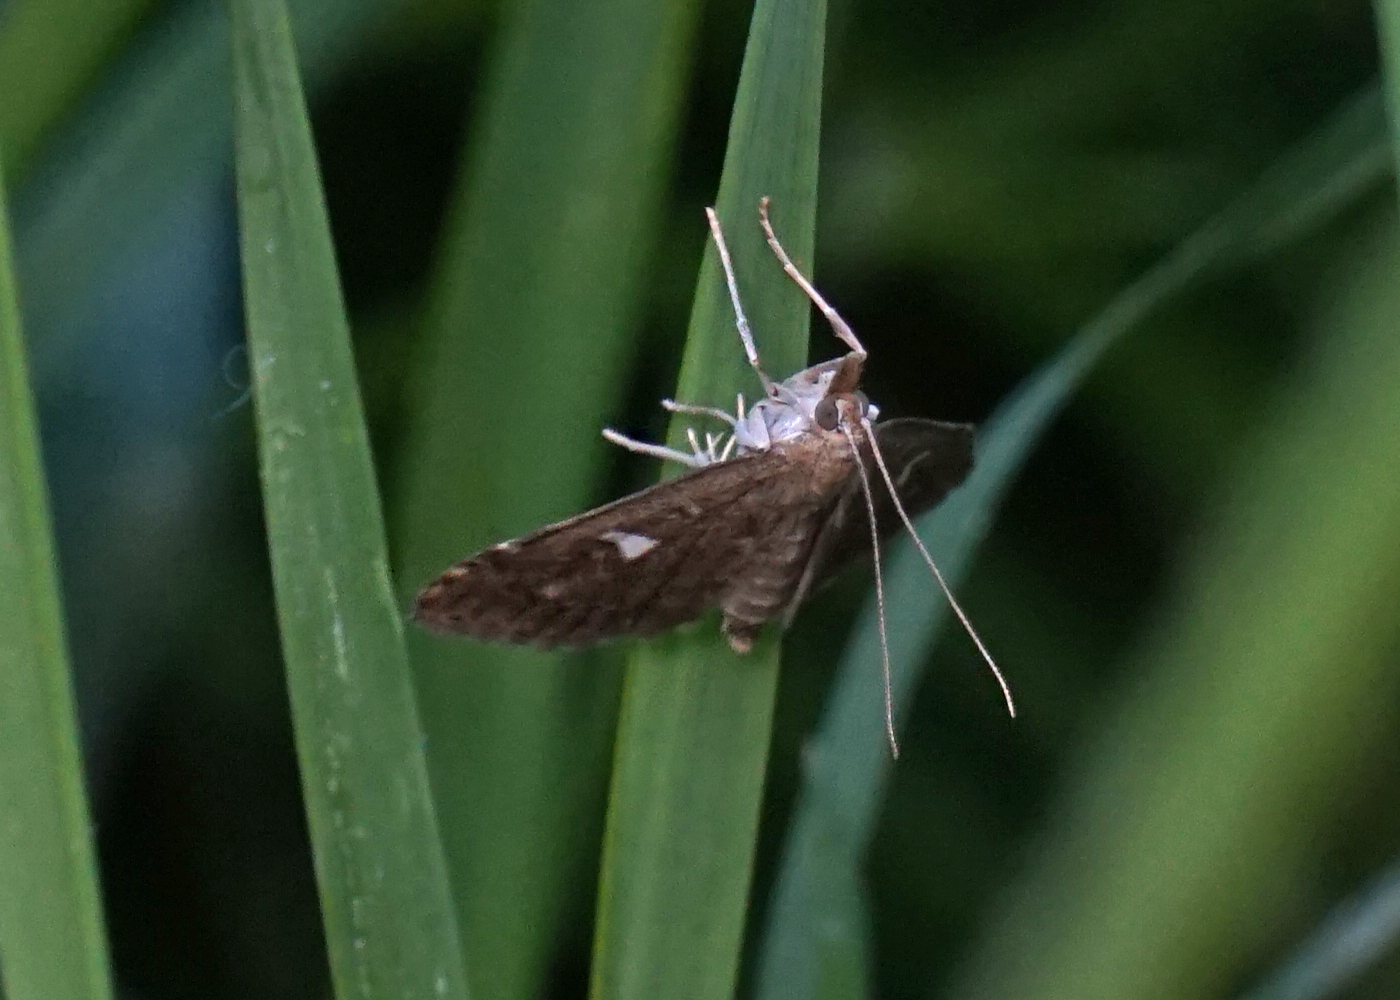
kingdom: Animalia
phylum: Arthropoda
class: Insecta
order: Lepidoptera
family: Crambidae
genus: Udea
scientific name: Udea olivalis
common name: Olive pearl
